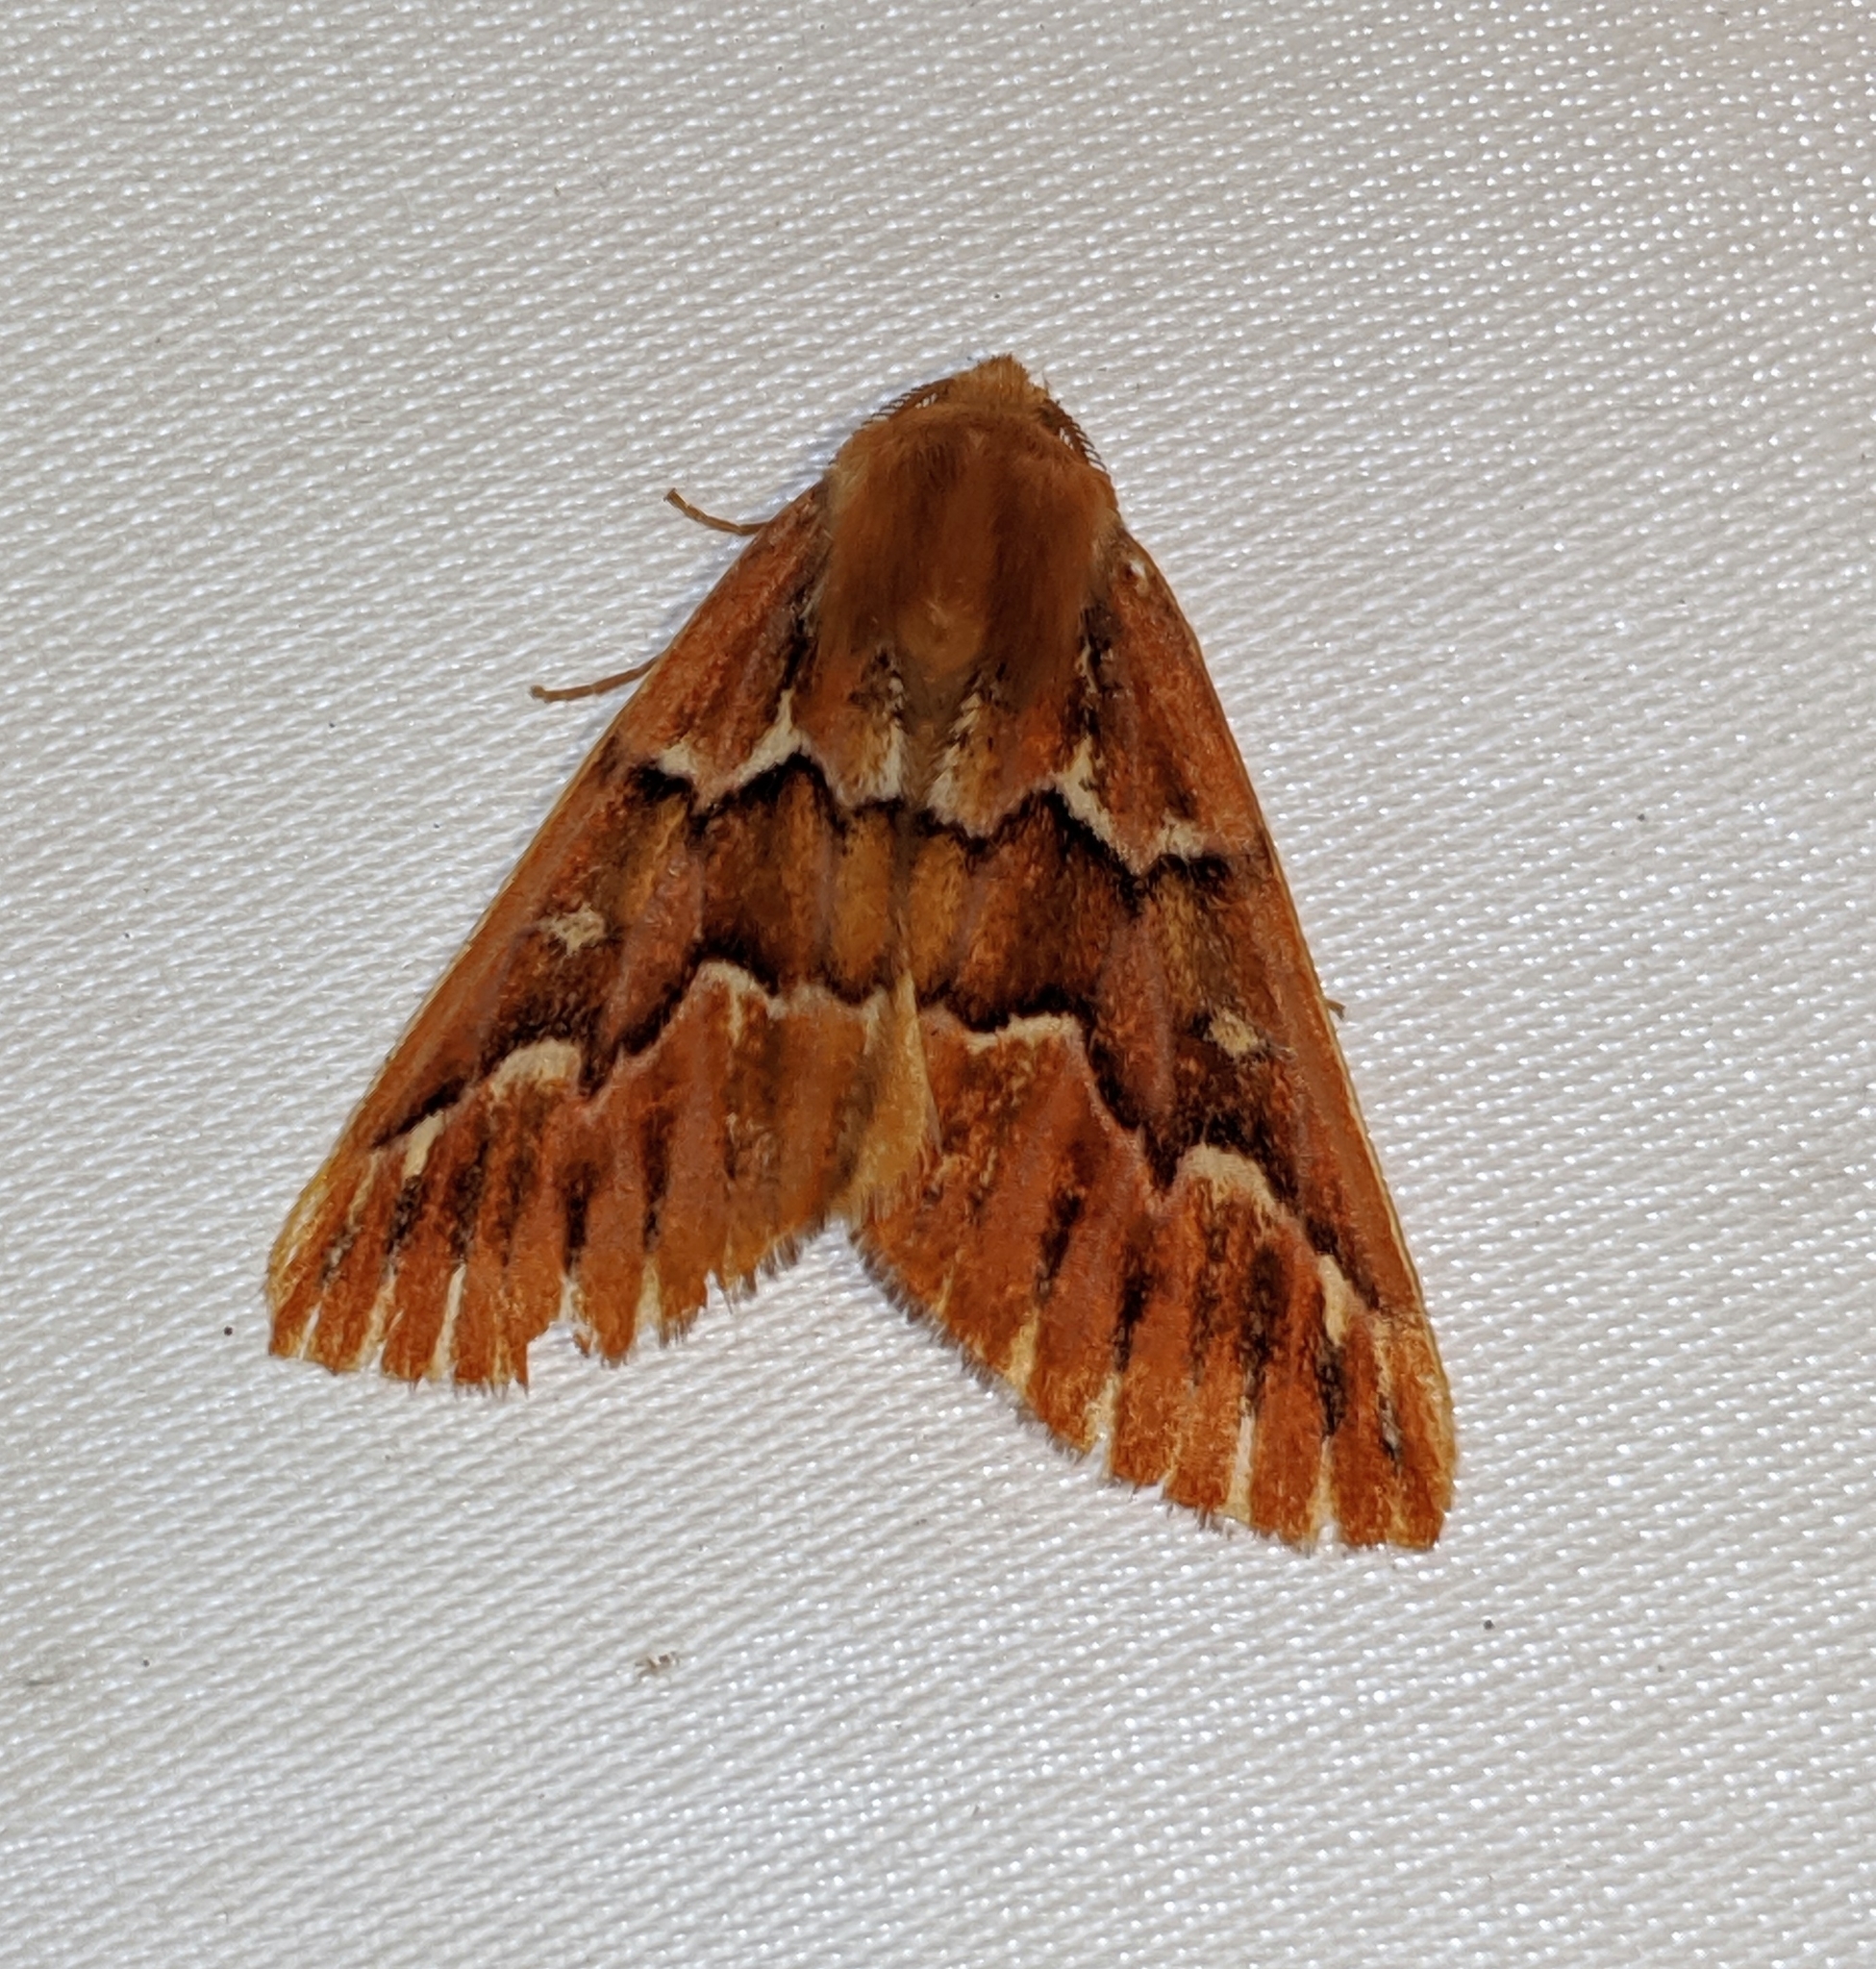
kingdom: Animalia
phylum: Arthropoda
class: Insecta
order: Lepidoptera
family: Geometridae
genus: Caripeta
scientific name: Caripeta aequaliaria
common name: Red girdle moth
